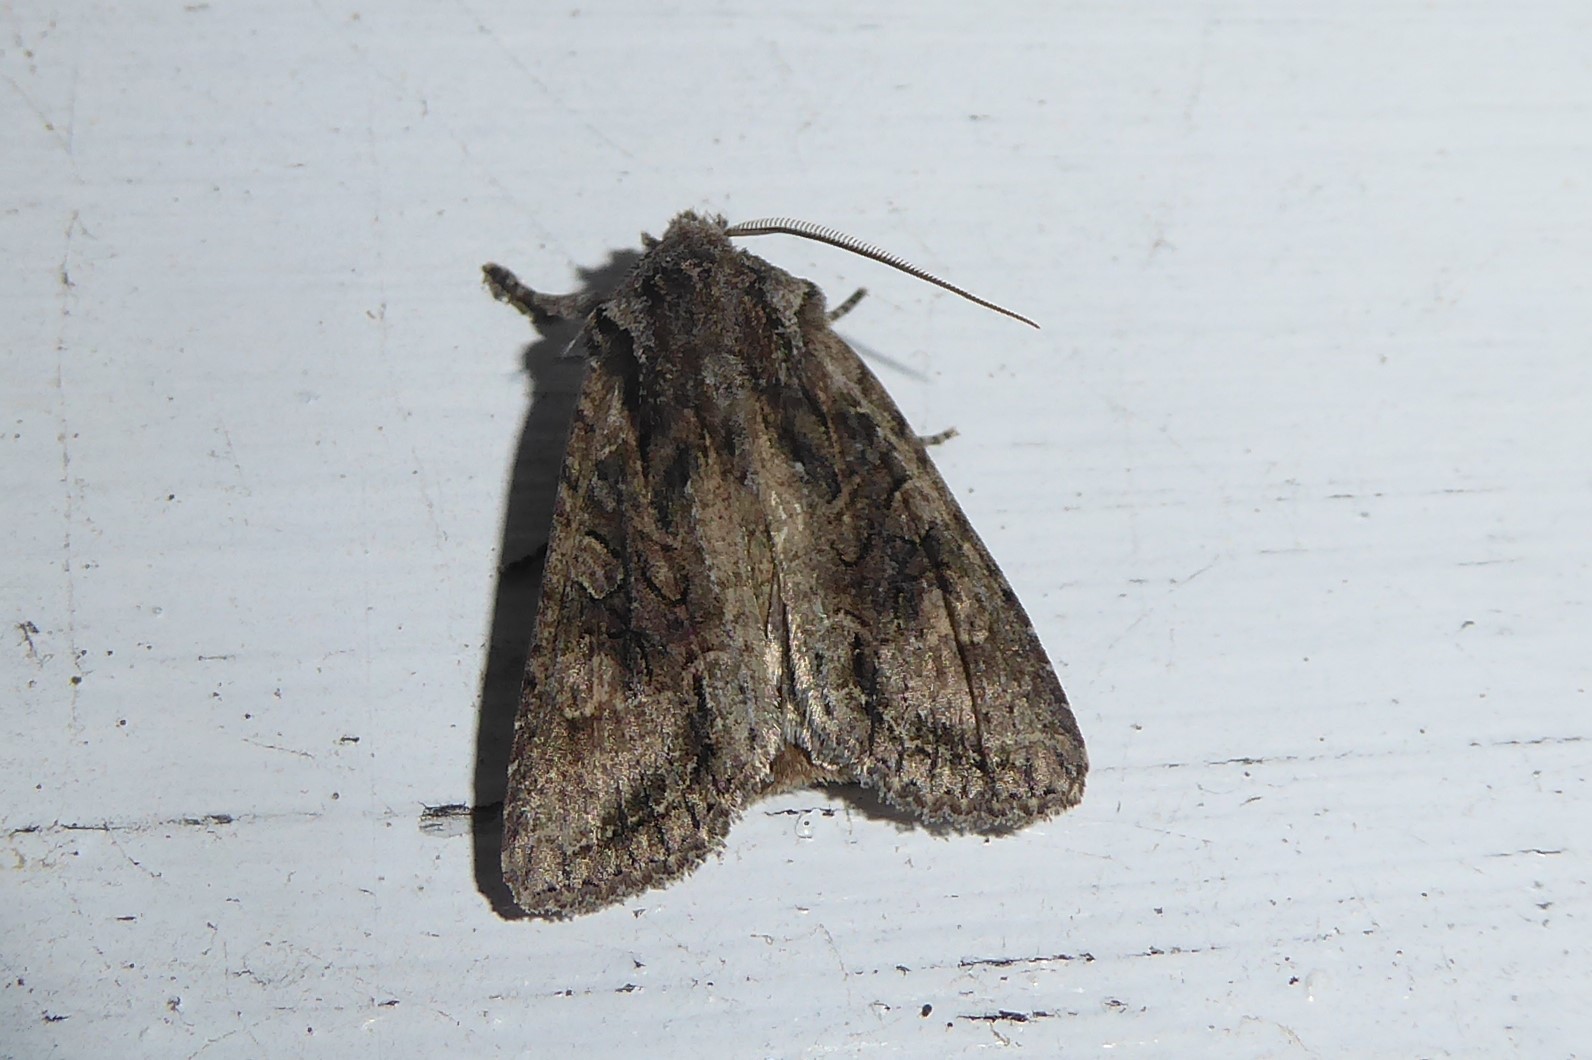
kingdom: Animalia
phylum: Arthropoda
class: Insecta
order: Lepidoptera
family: Noctuidae
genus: Ichneutica
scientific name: Ichneutica mutans
